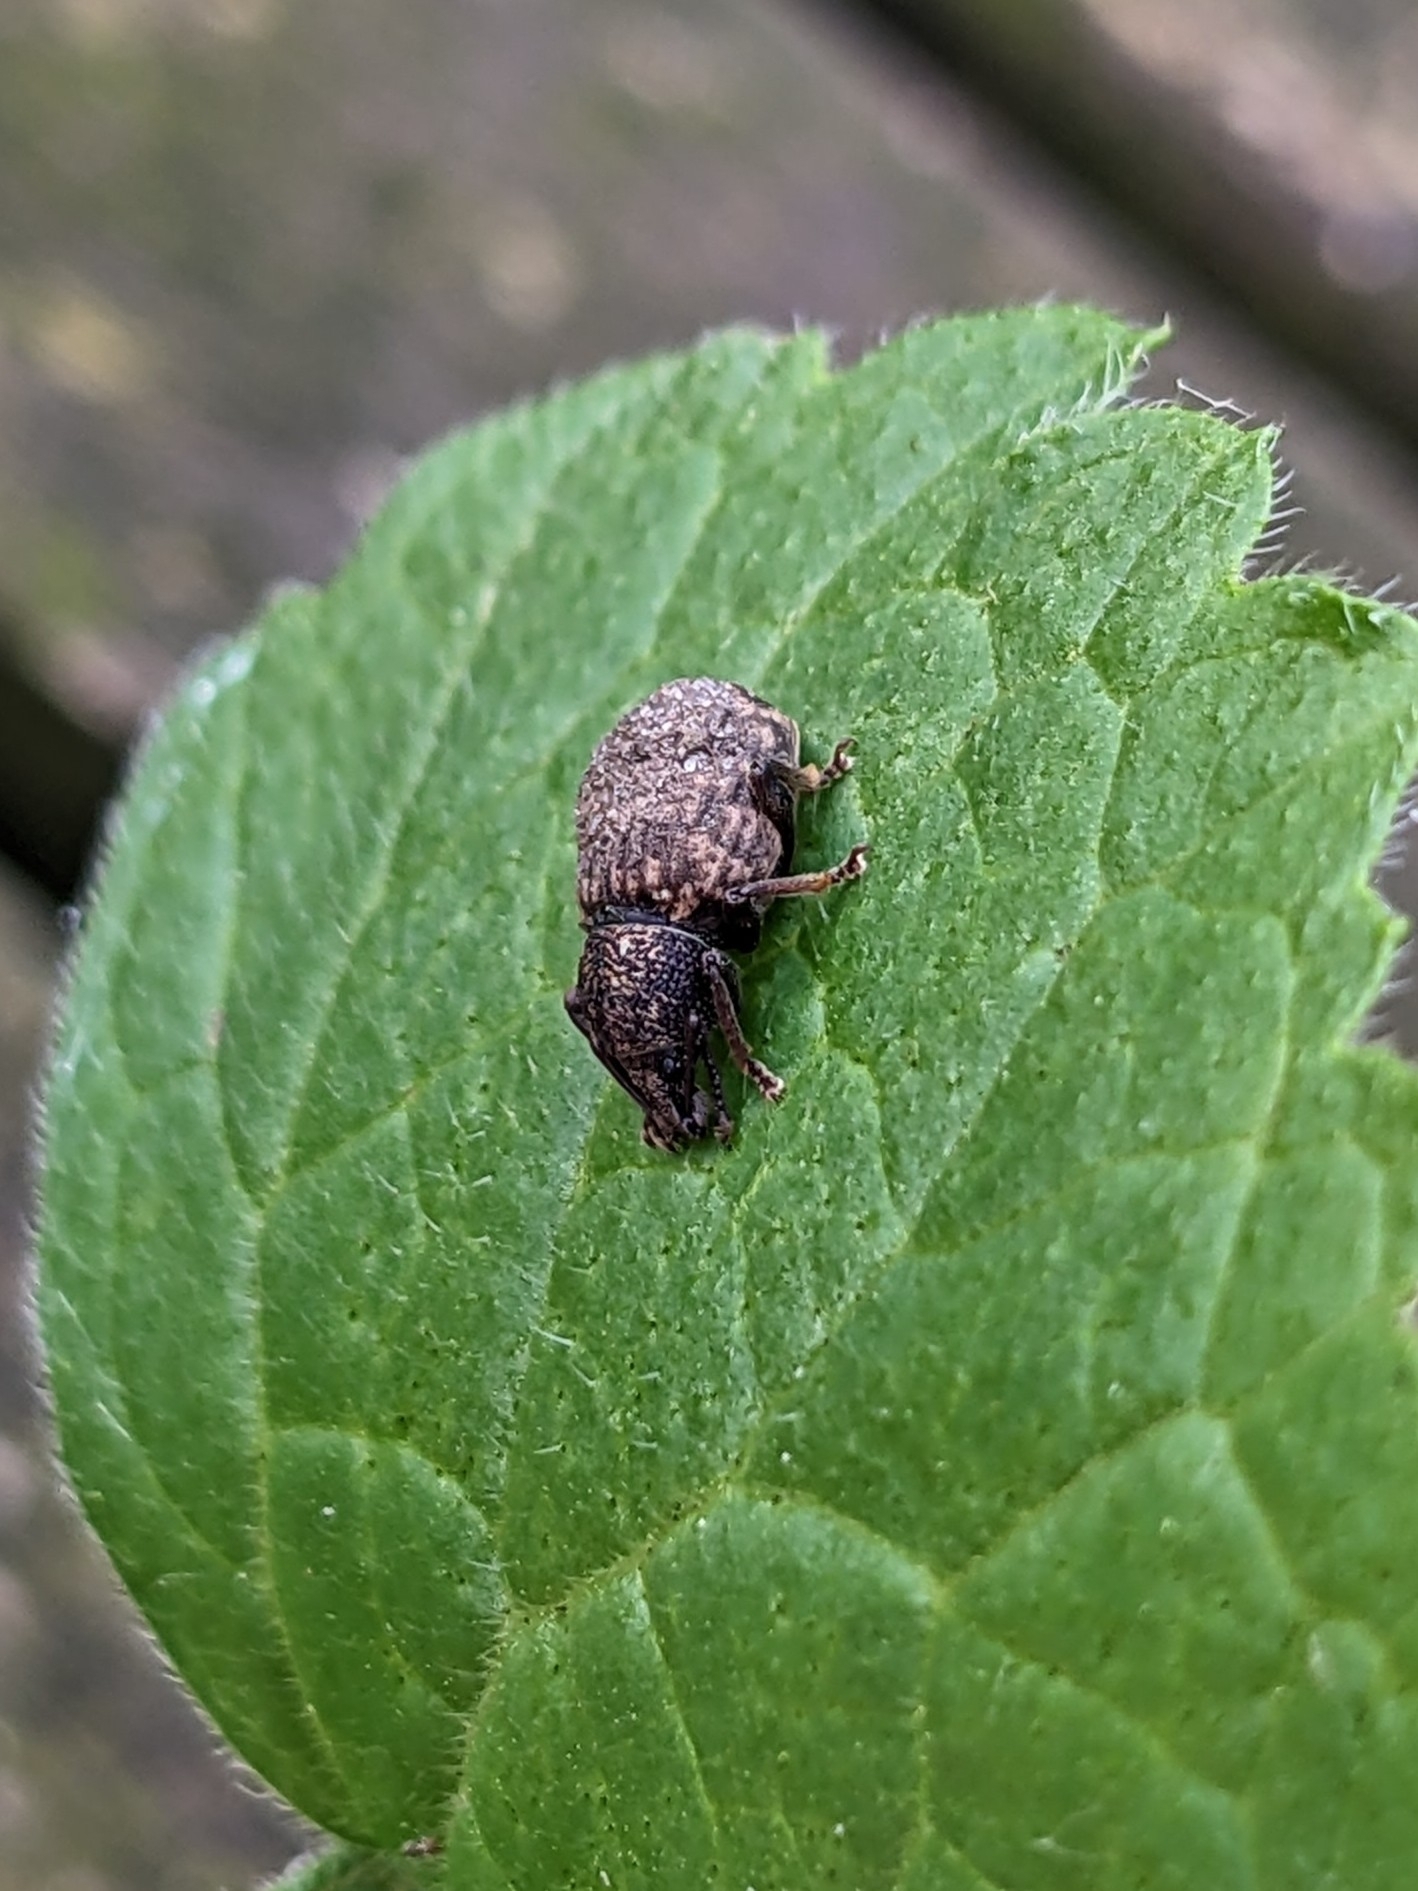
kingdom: Animalia
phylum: Arthropoda
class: Insecta
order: Coleoptera
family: Curculionidae
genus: Otiorhynchus
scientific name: Otiorhynchus raucus
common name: Weevil
